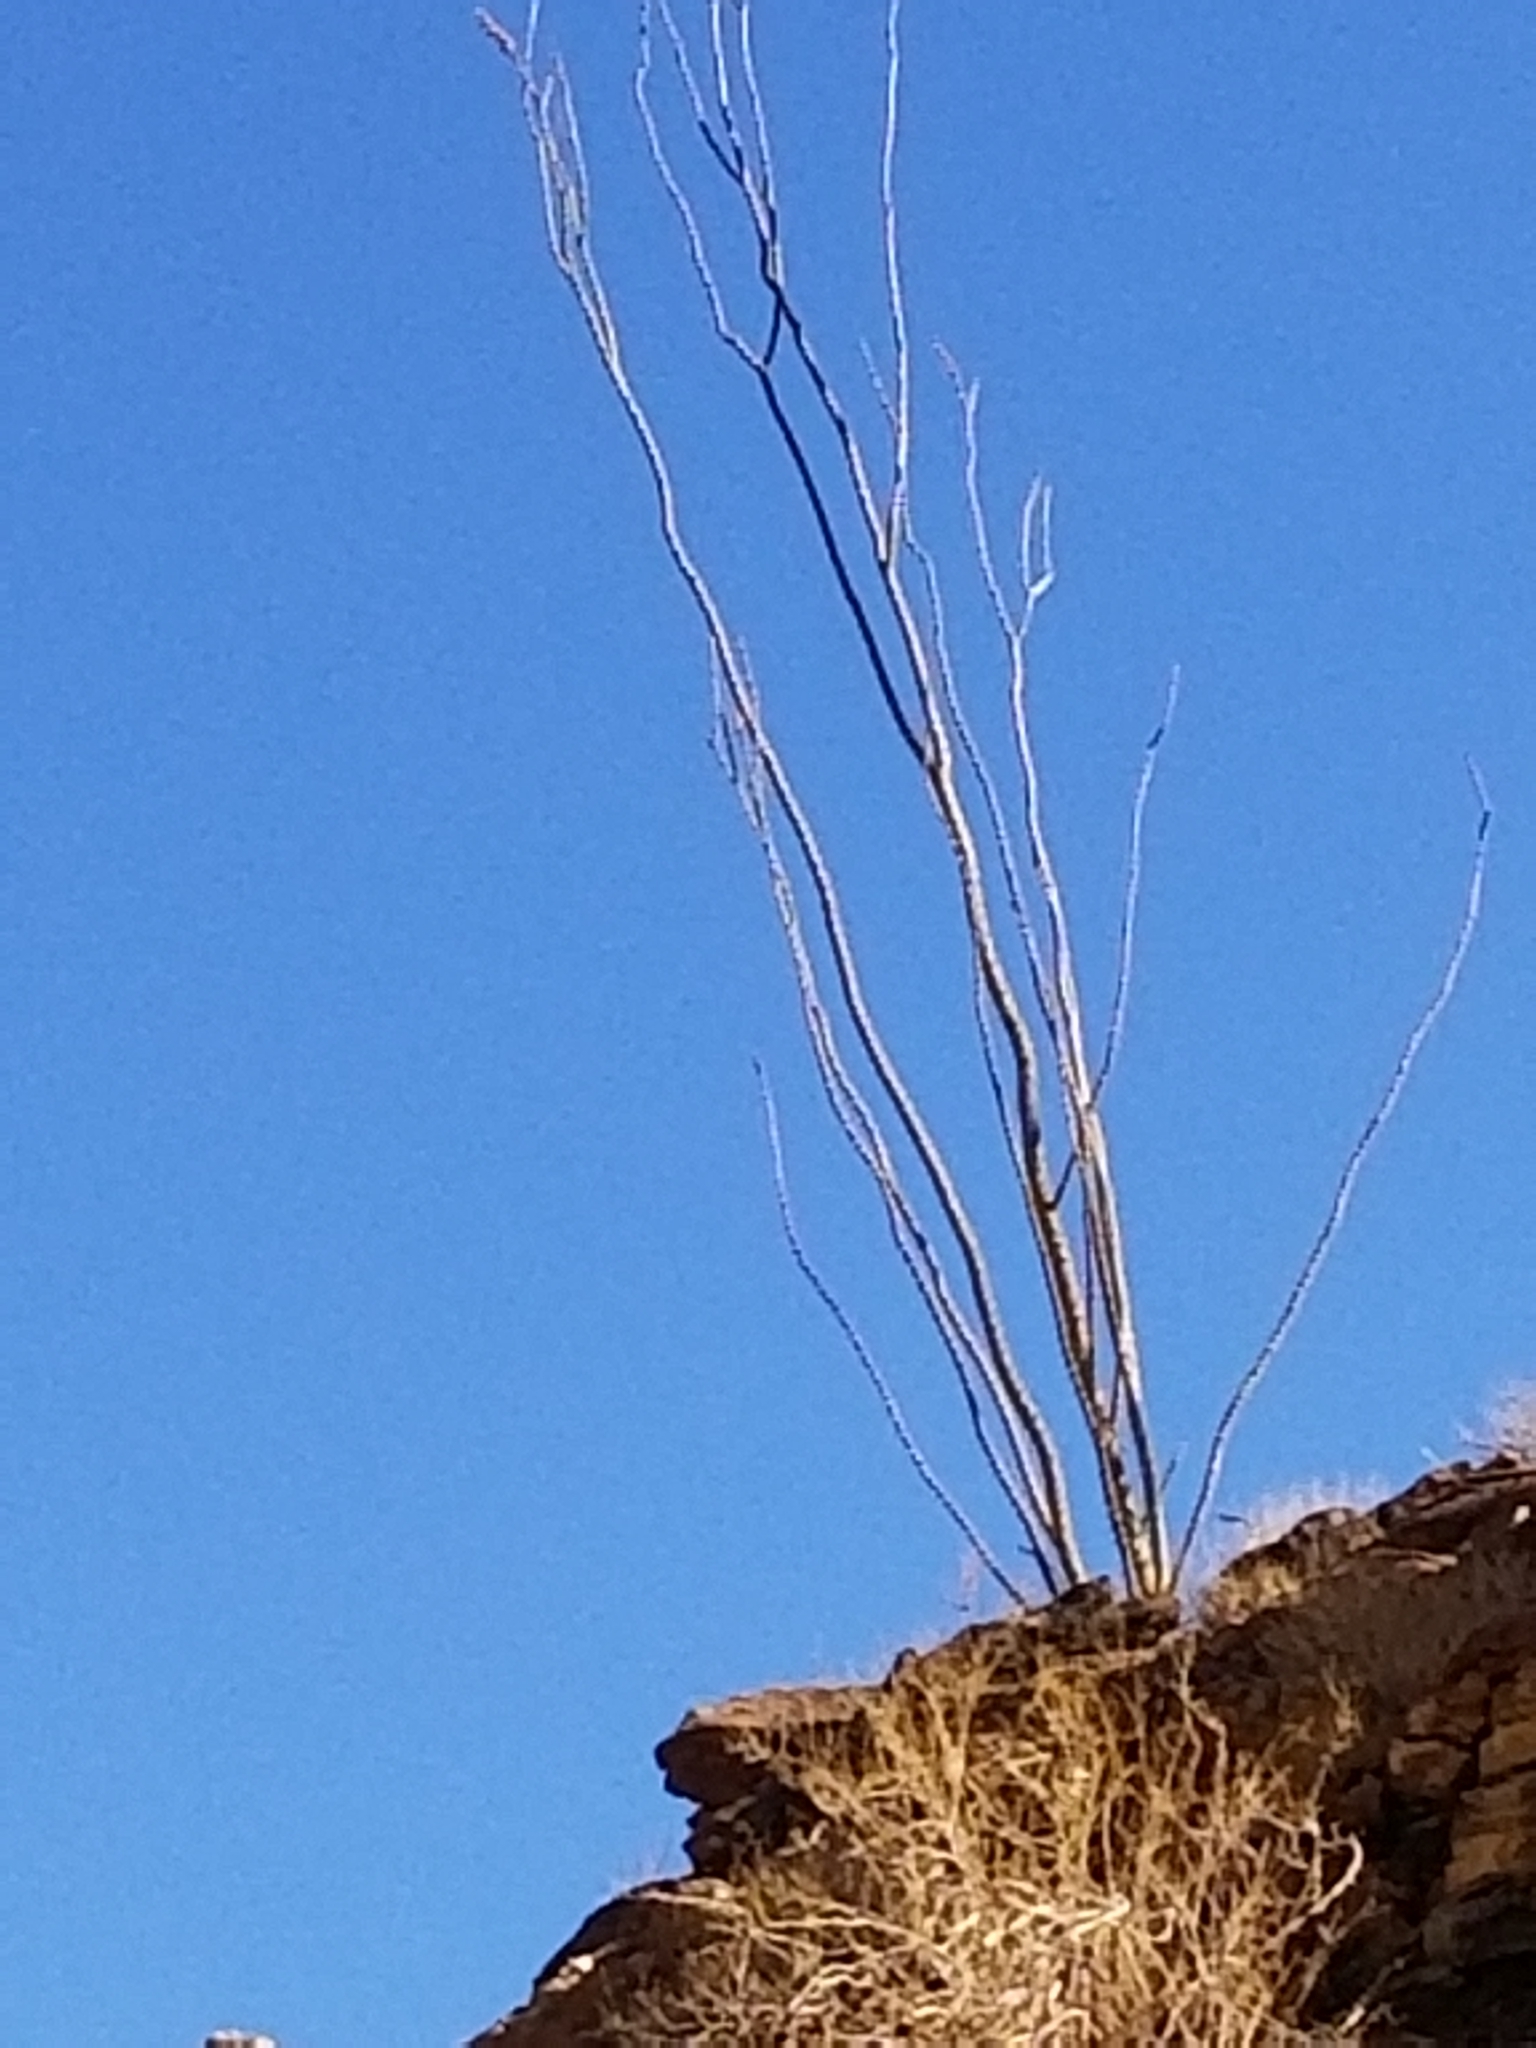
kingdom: Plantae
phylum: Tracheophyta
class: Magnoliopsida
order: Ericales
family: Fouquieriaceae
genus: Fouquieria
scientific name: Fouquieria splendens
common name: Vine-cactus
